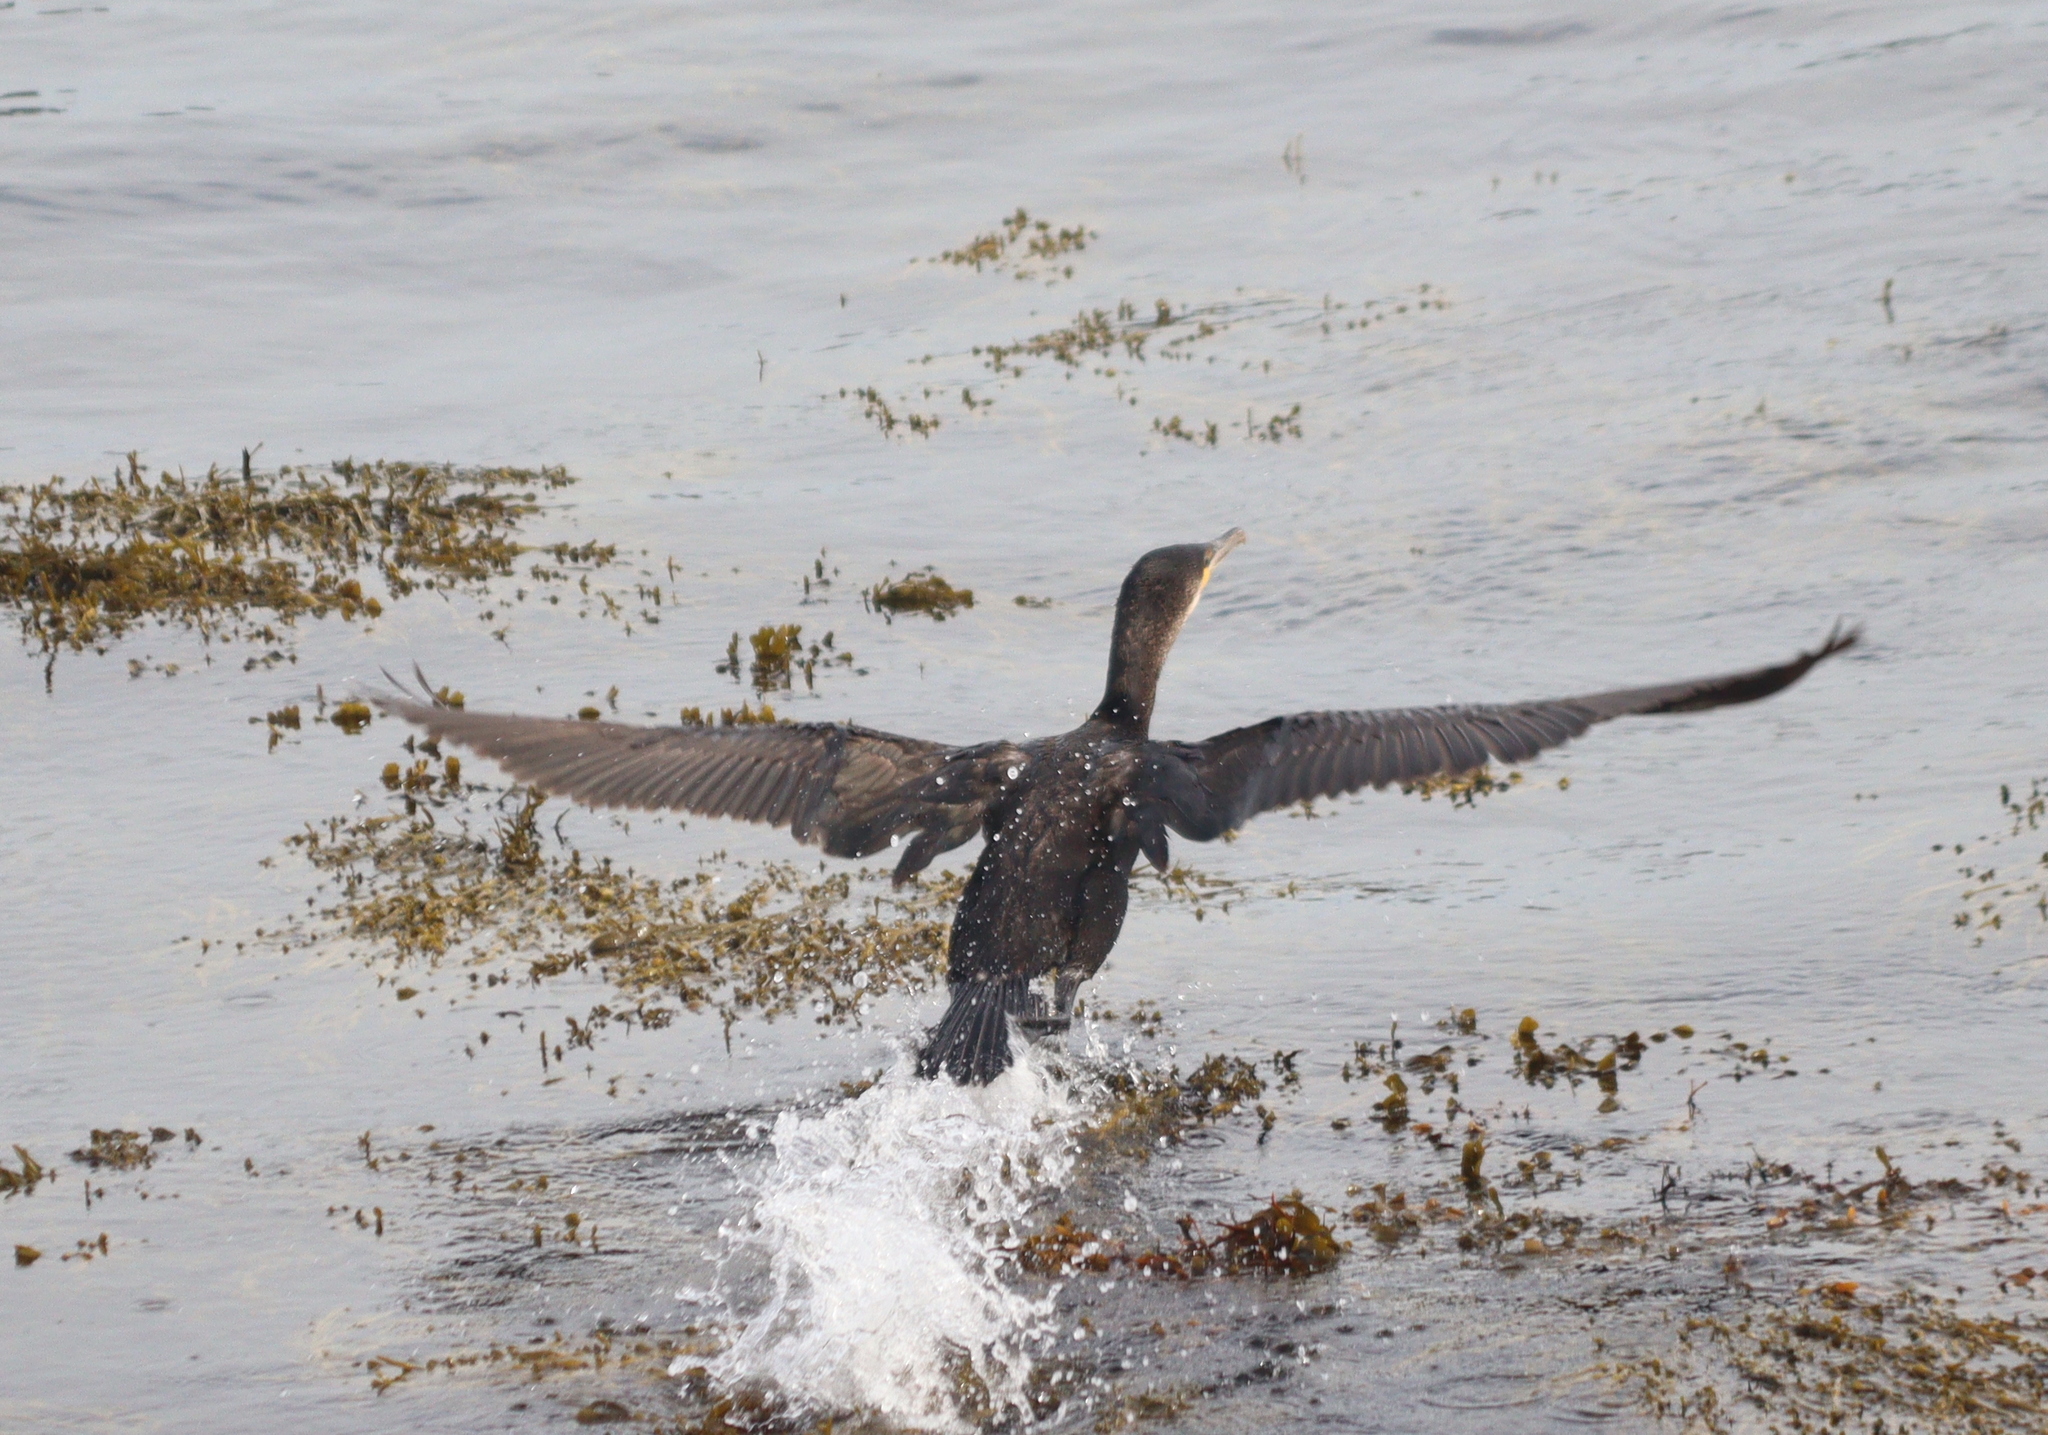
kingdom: Animalia
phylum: Chordata
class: Aves
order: Suliformes
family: Phalacrocoracidae
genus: Phalacrocorax
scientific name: Phalacrocorax carbo
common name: Great cormorant
